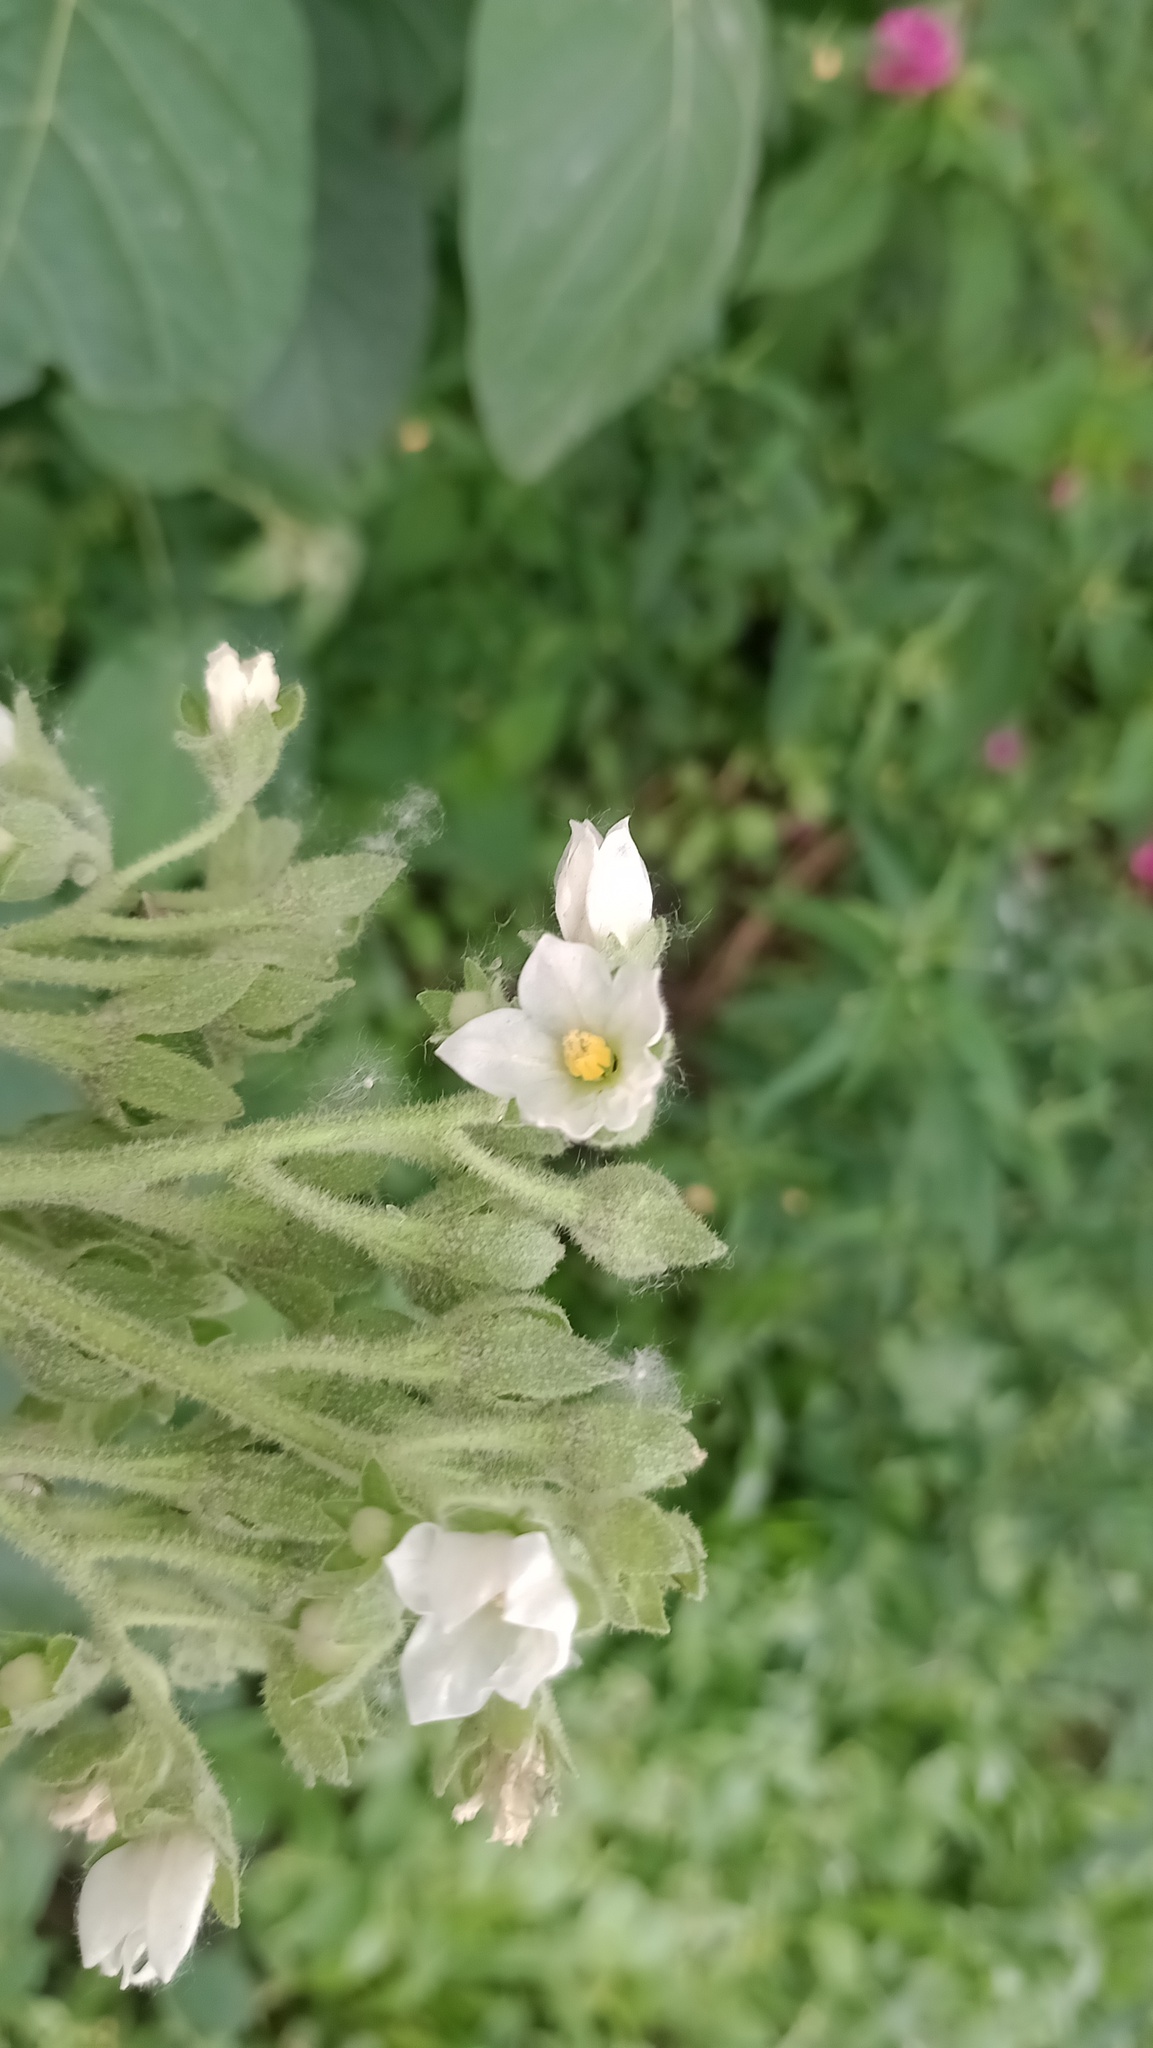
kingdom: Plantae
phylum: Tracheophyta
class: Magnoliopsida
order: Solanales
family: Solanaceae
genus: Solanum
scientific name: Solanum abutiloides
